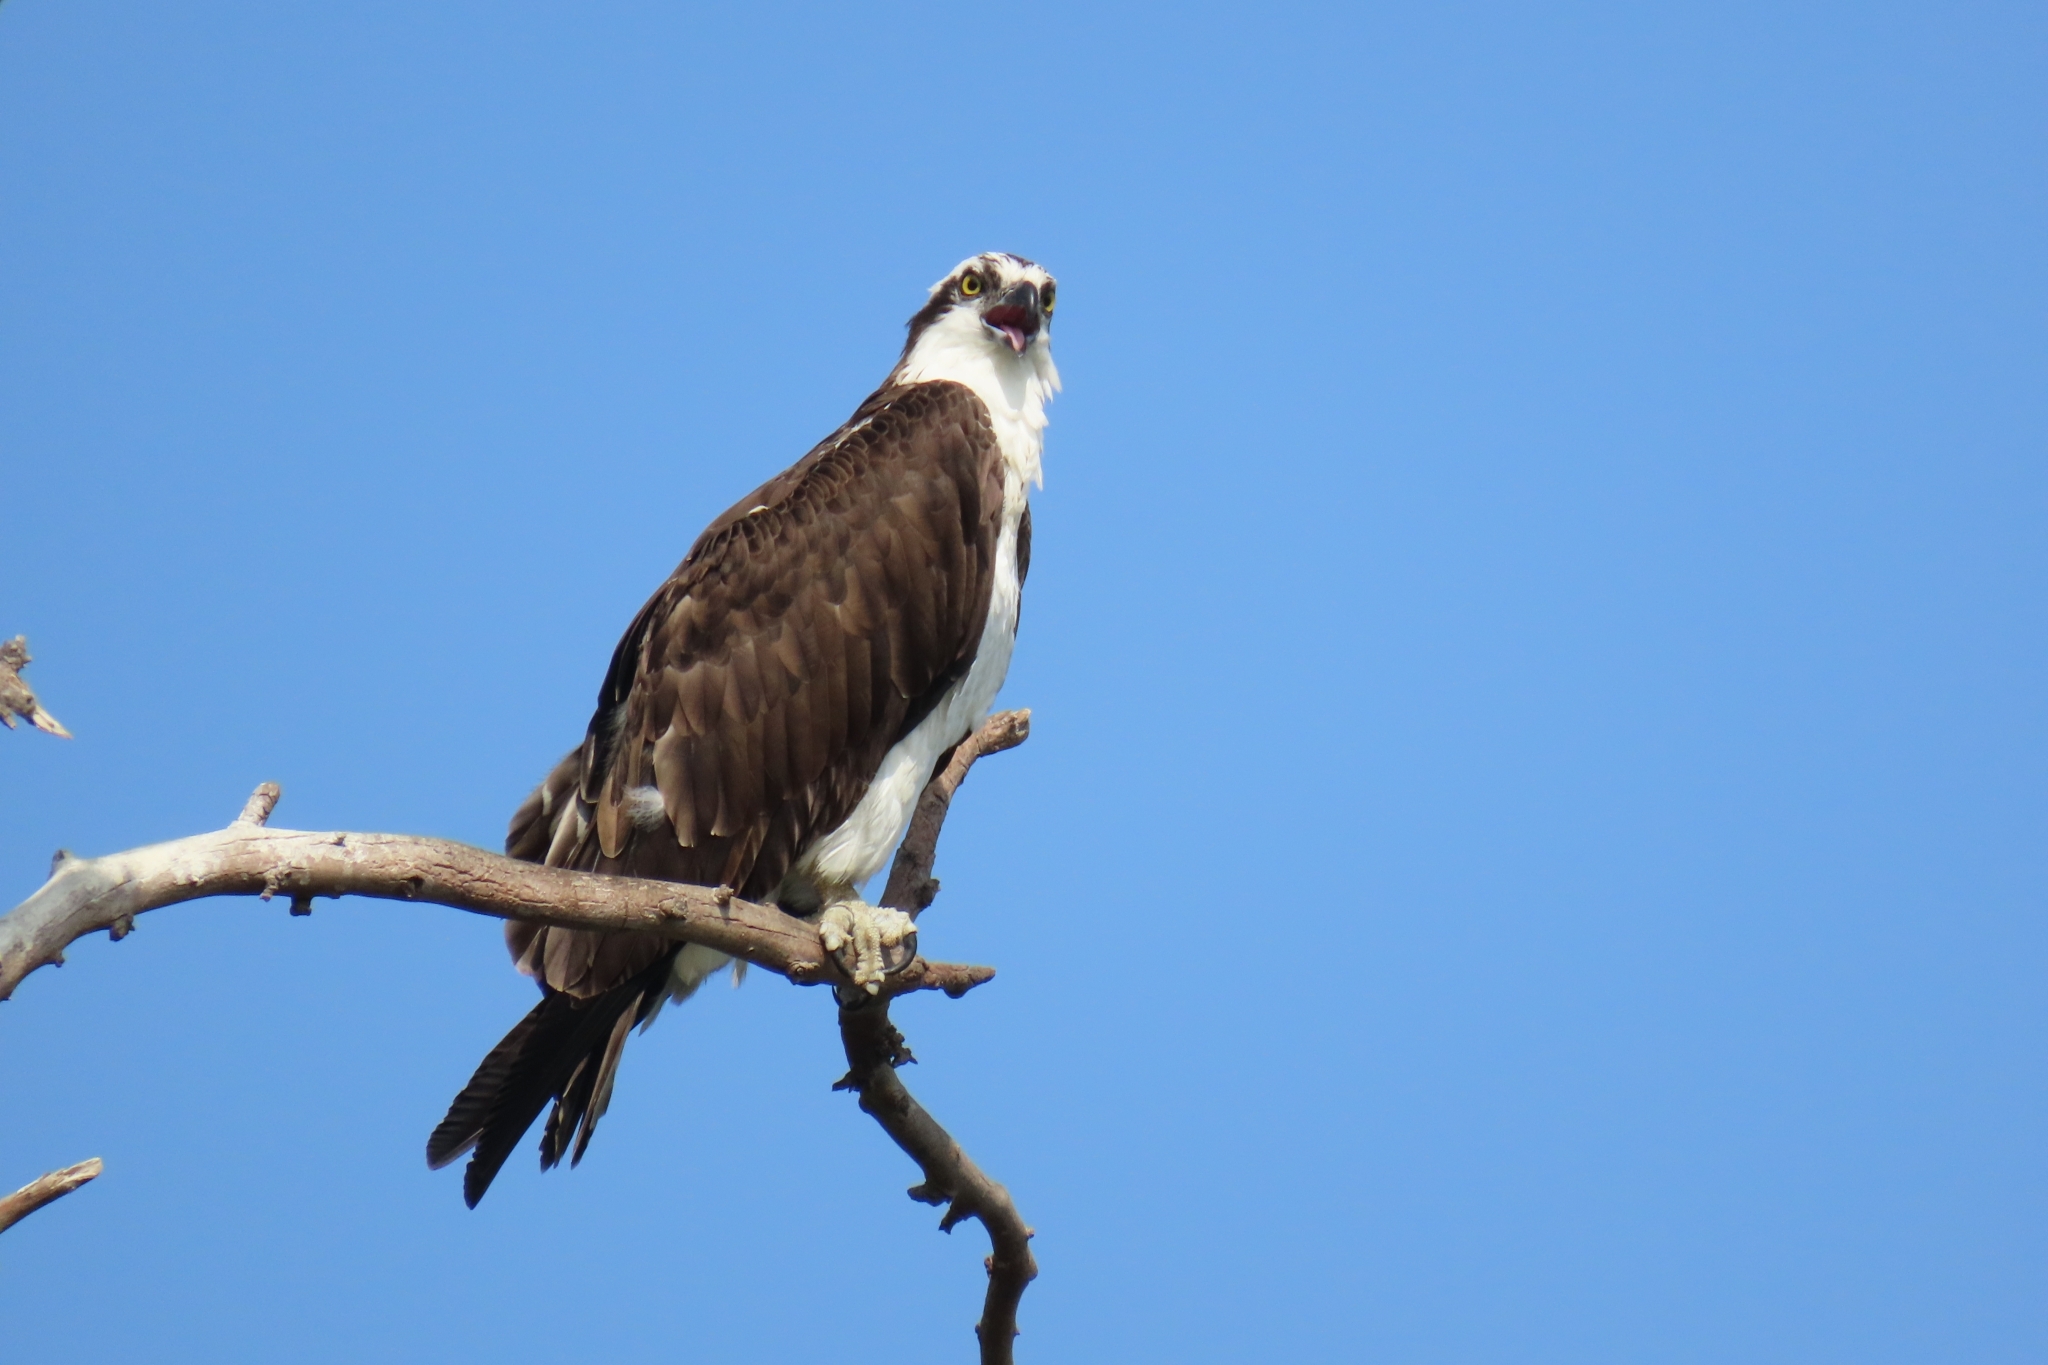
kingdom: Animalia
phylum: Chordata
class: Aves
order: Accipitriformes
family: Pandionidae
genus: Pandion
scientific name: Pandion haliaetus
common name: Osprey
